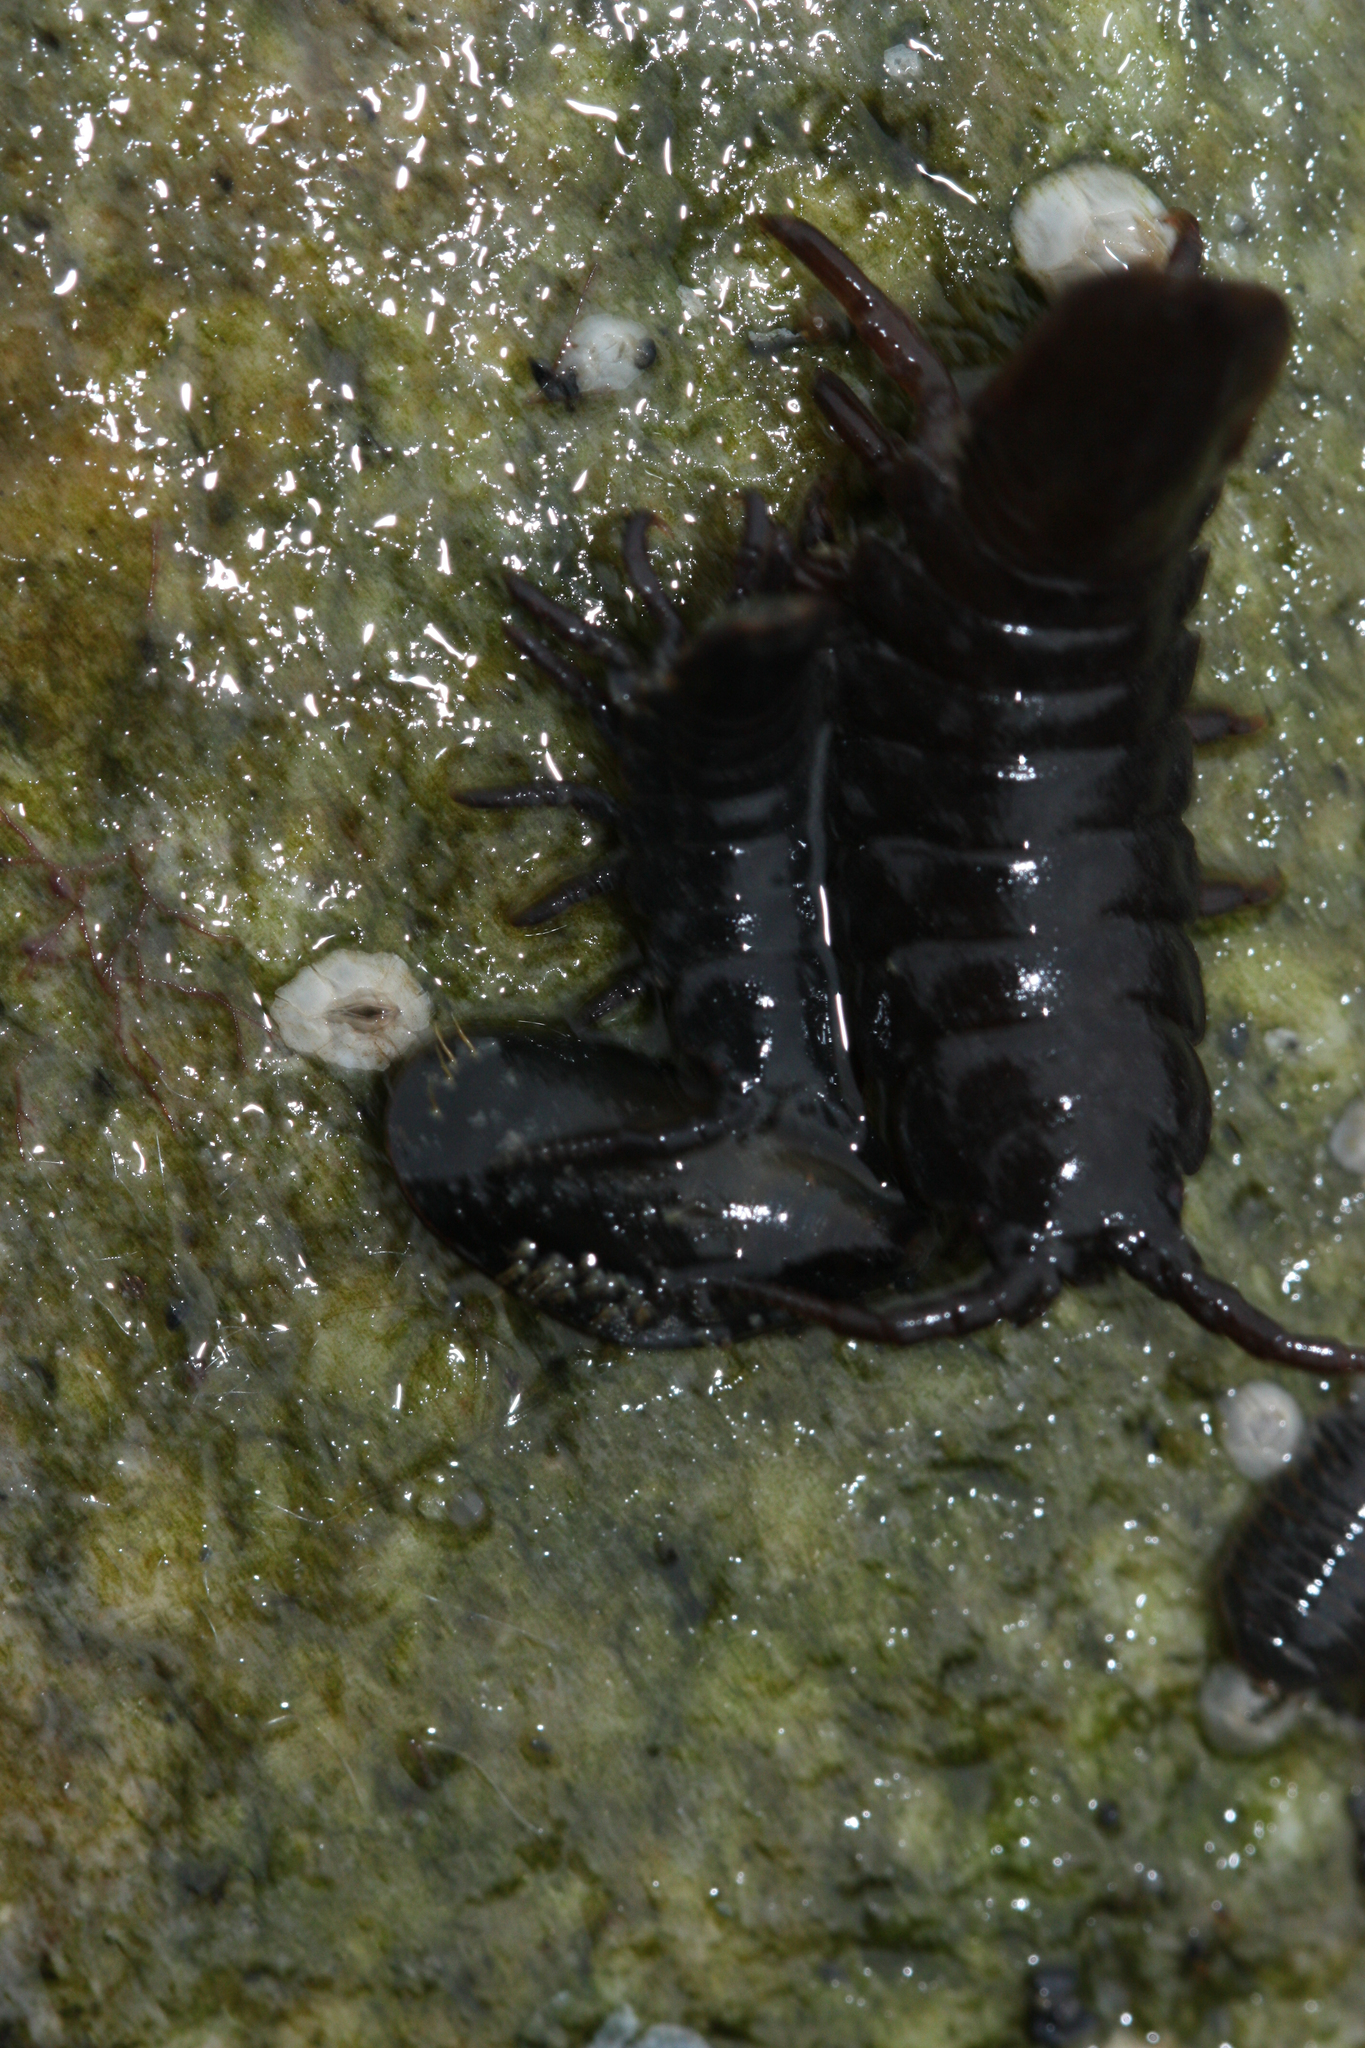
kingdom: Animalia
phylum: Arthropoda
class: Malacostraca
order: Isopoda
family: Idoteidae
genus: Pentidotea
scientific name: Pentidotea wosnesenskii
